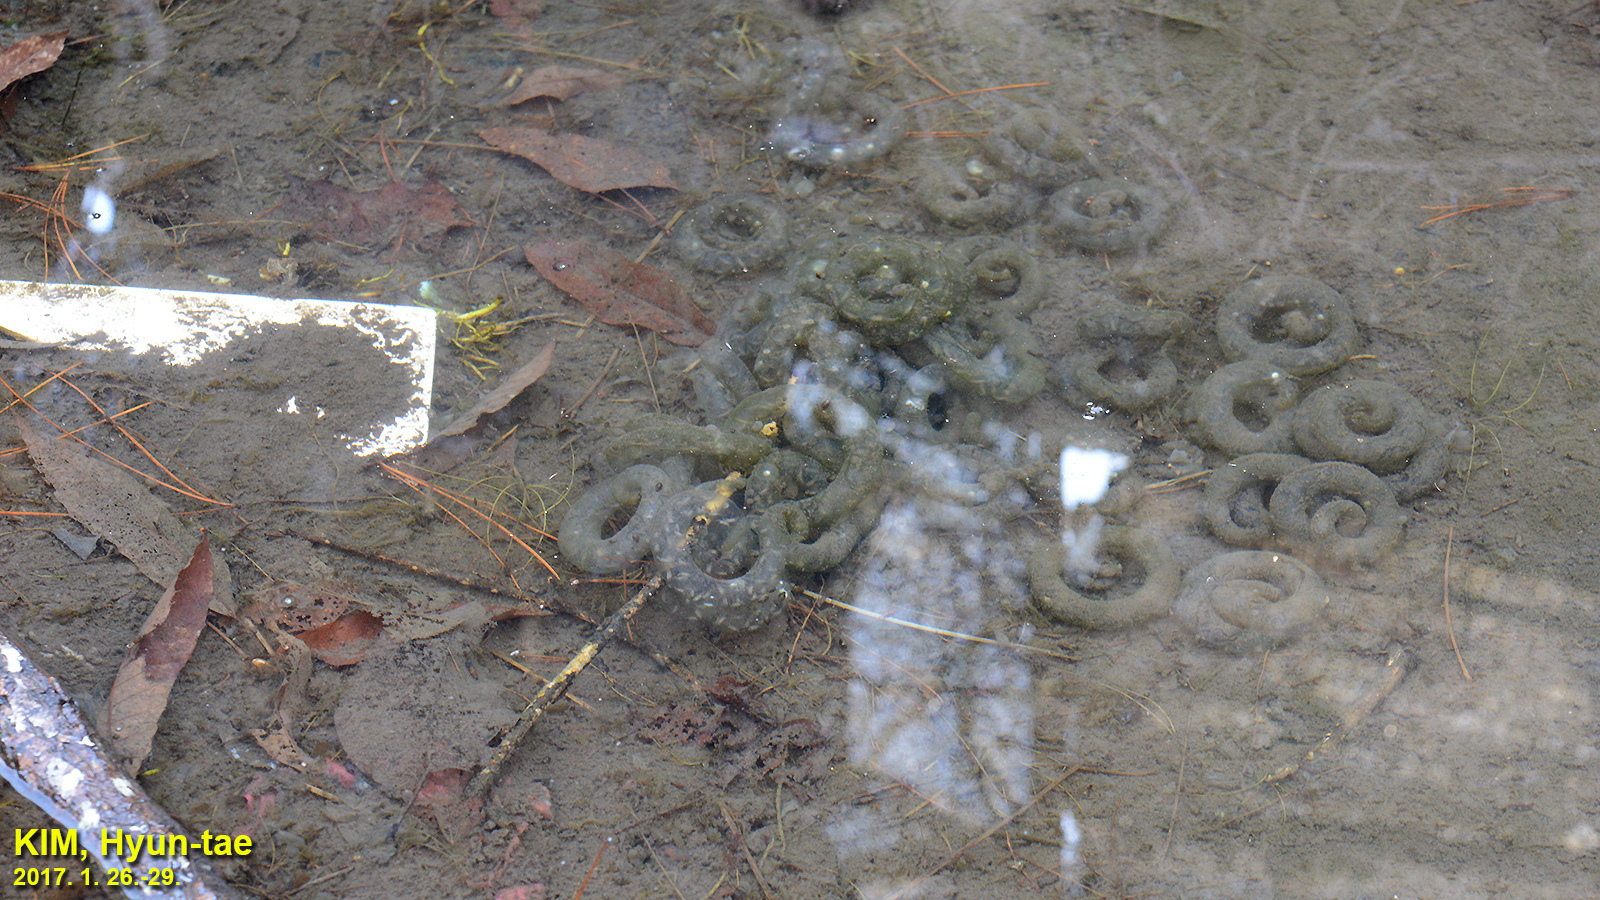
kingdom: Animalia
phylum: Chordata
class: Amphibia
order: Caudata
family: Hynobiidae
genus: Hynobius
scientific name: Hynobius leechii
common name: Gensan salamander
